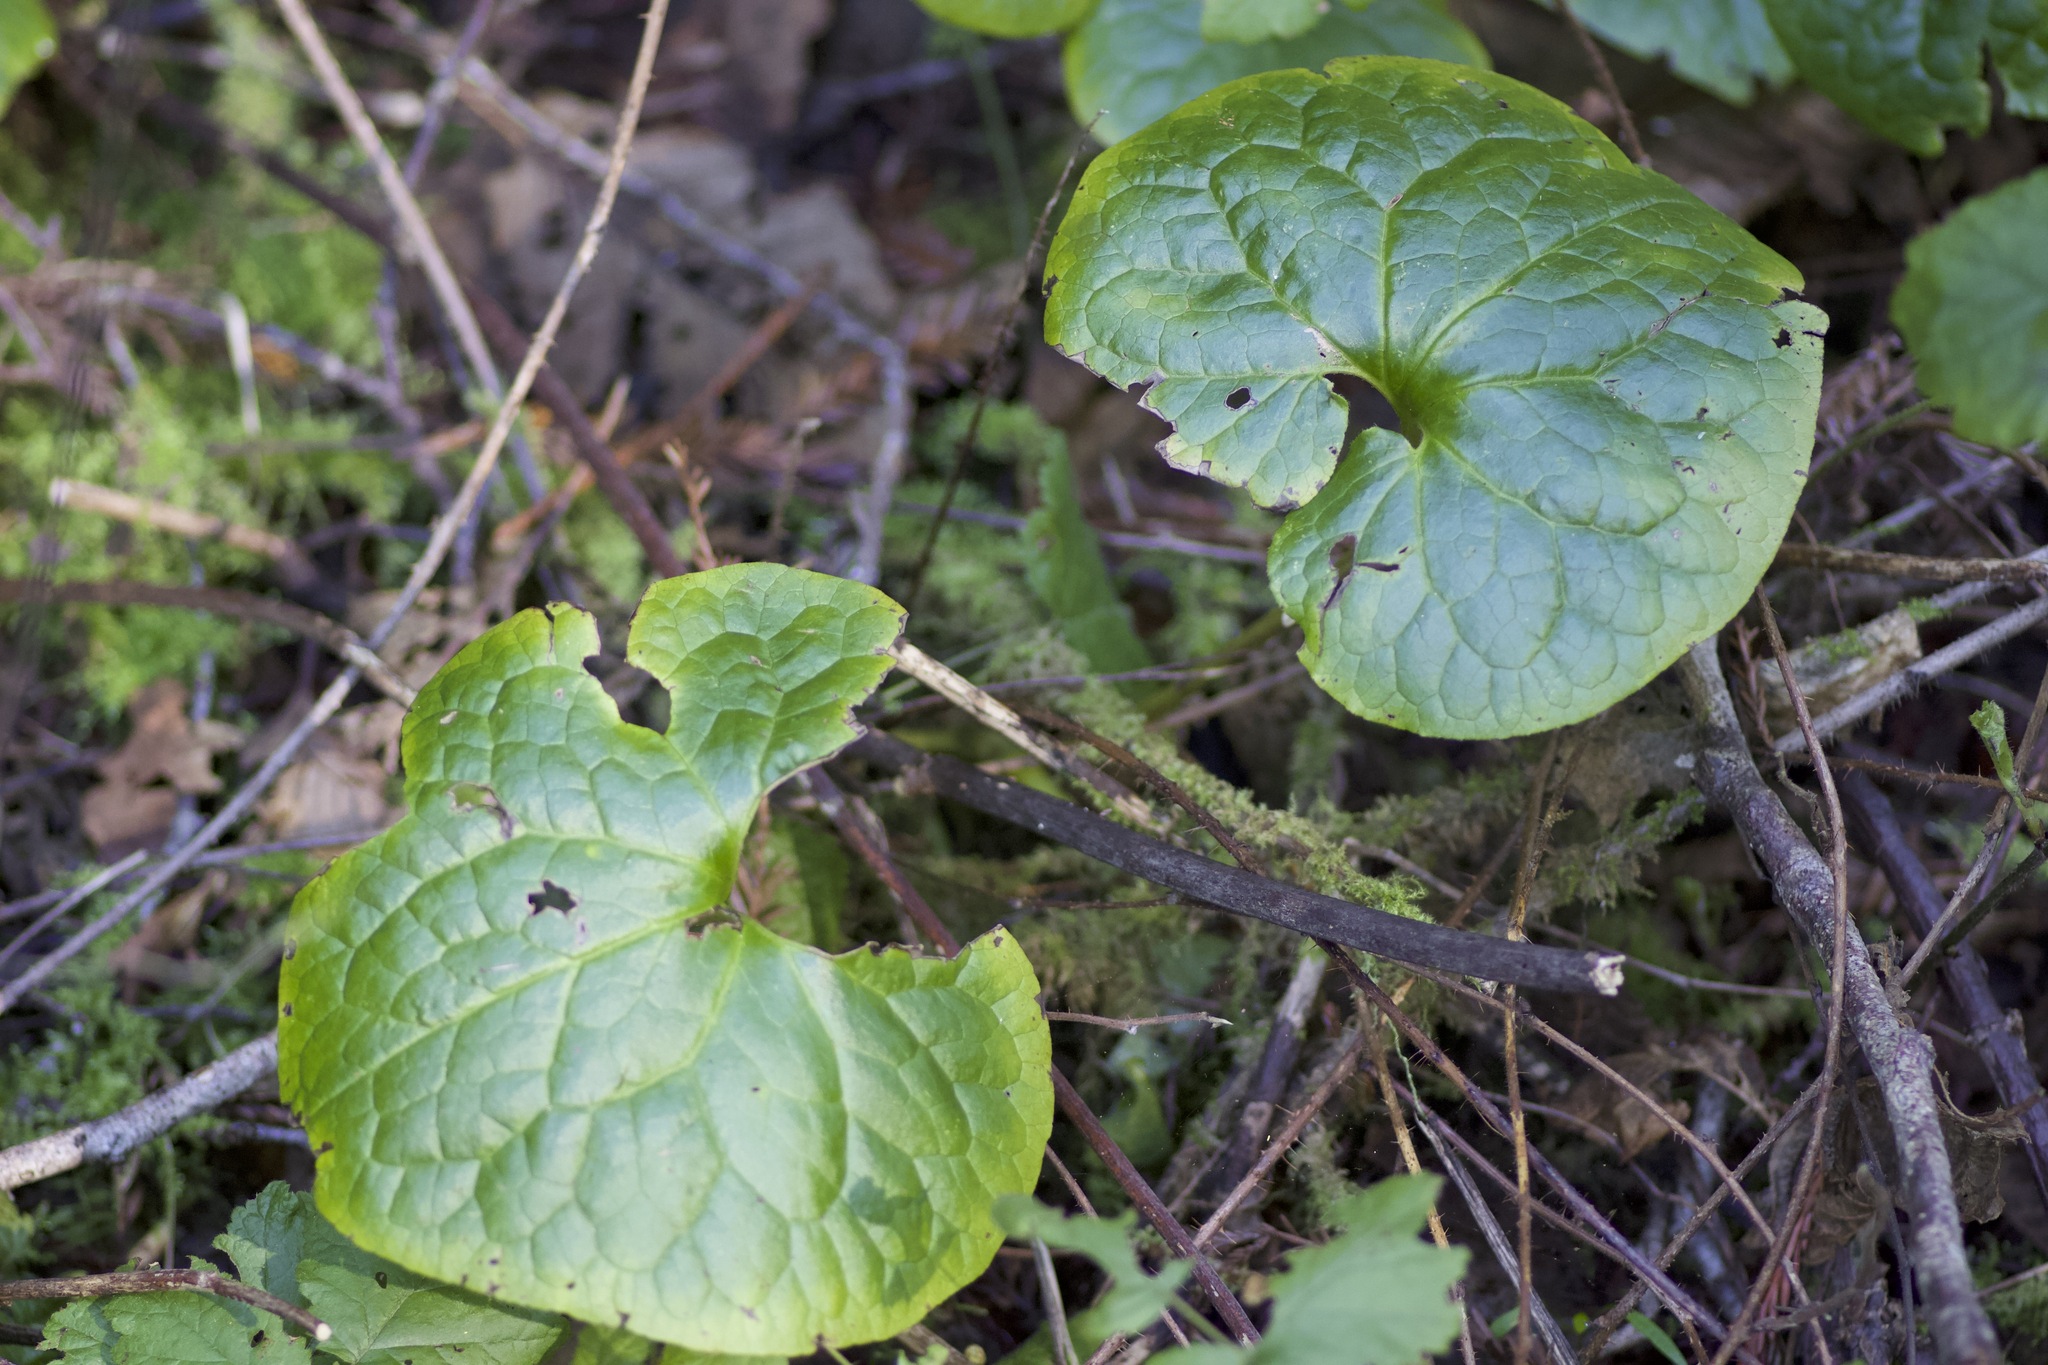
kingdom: Plantae
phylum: Tracheophyta
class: Magnoliopsida
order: Piperales
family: Aristolochiaceae
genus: Asarum
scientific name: Asarum caudatum
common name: Wild ginger
